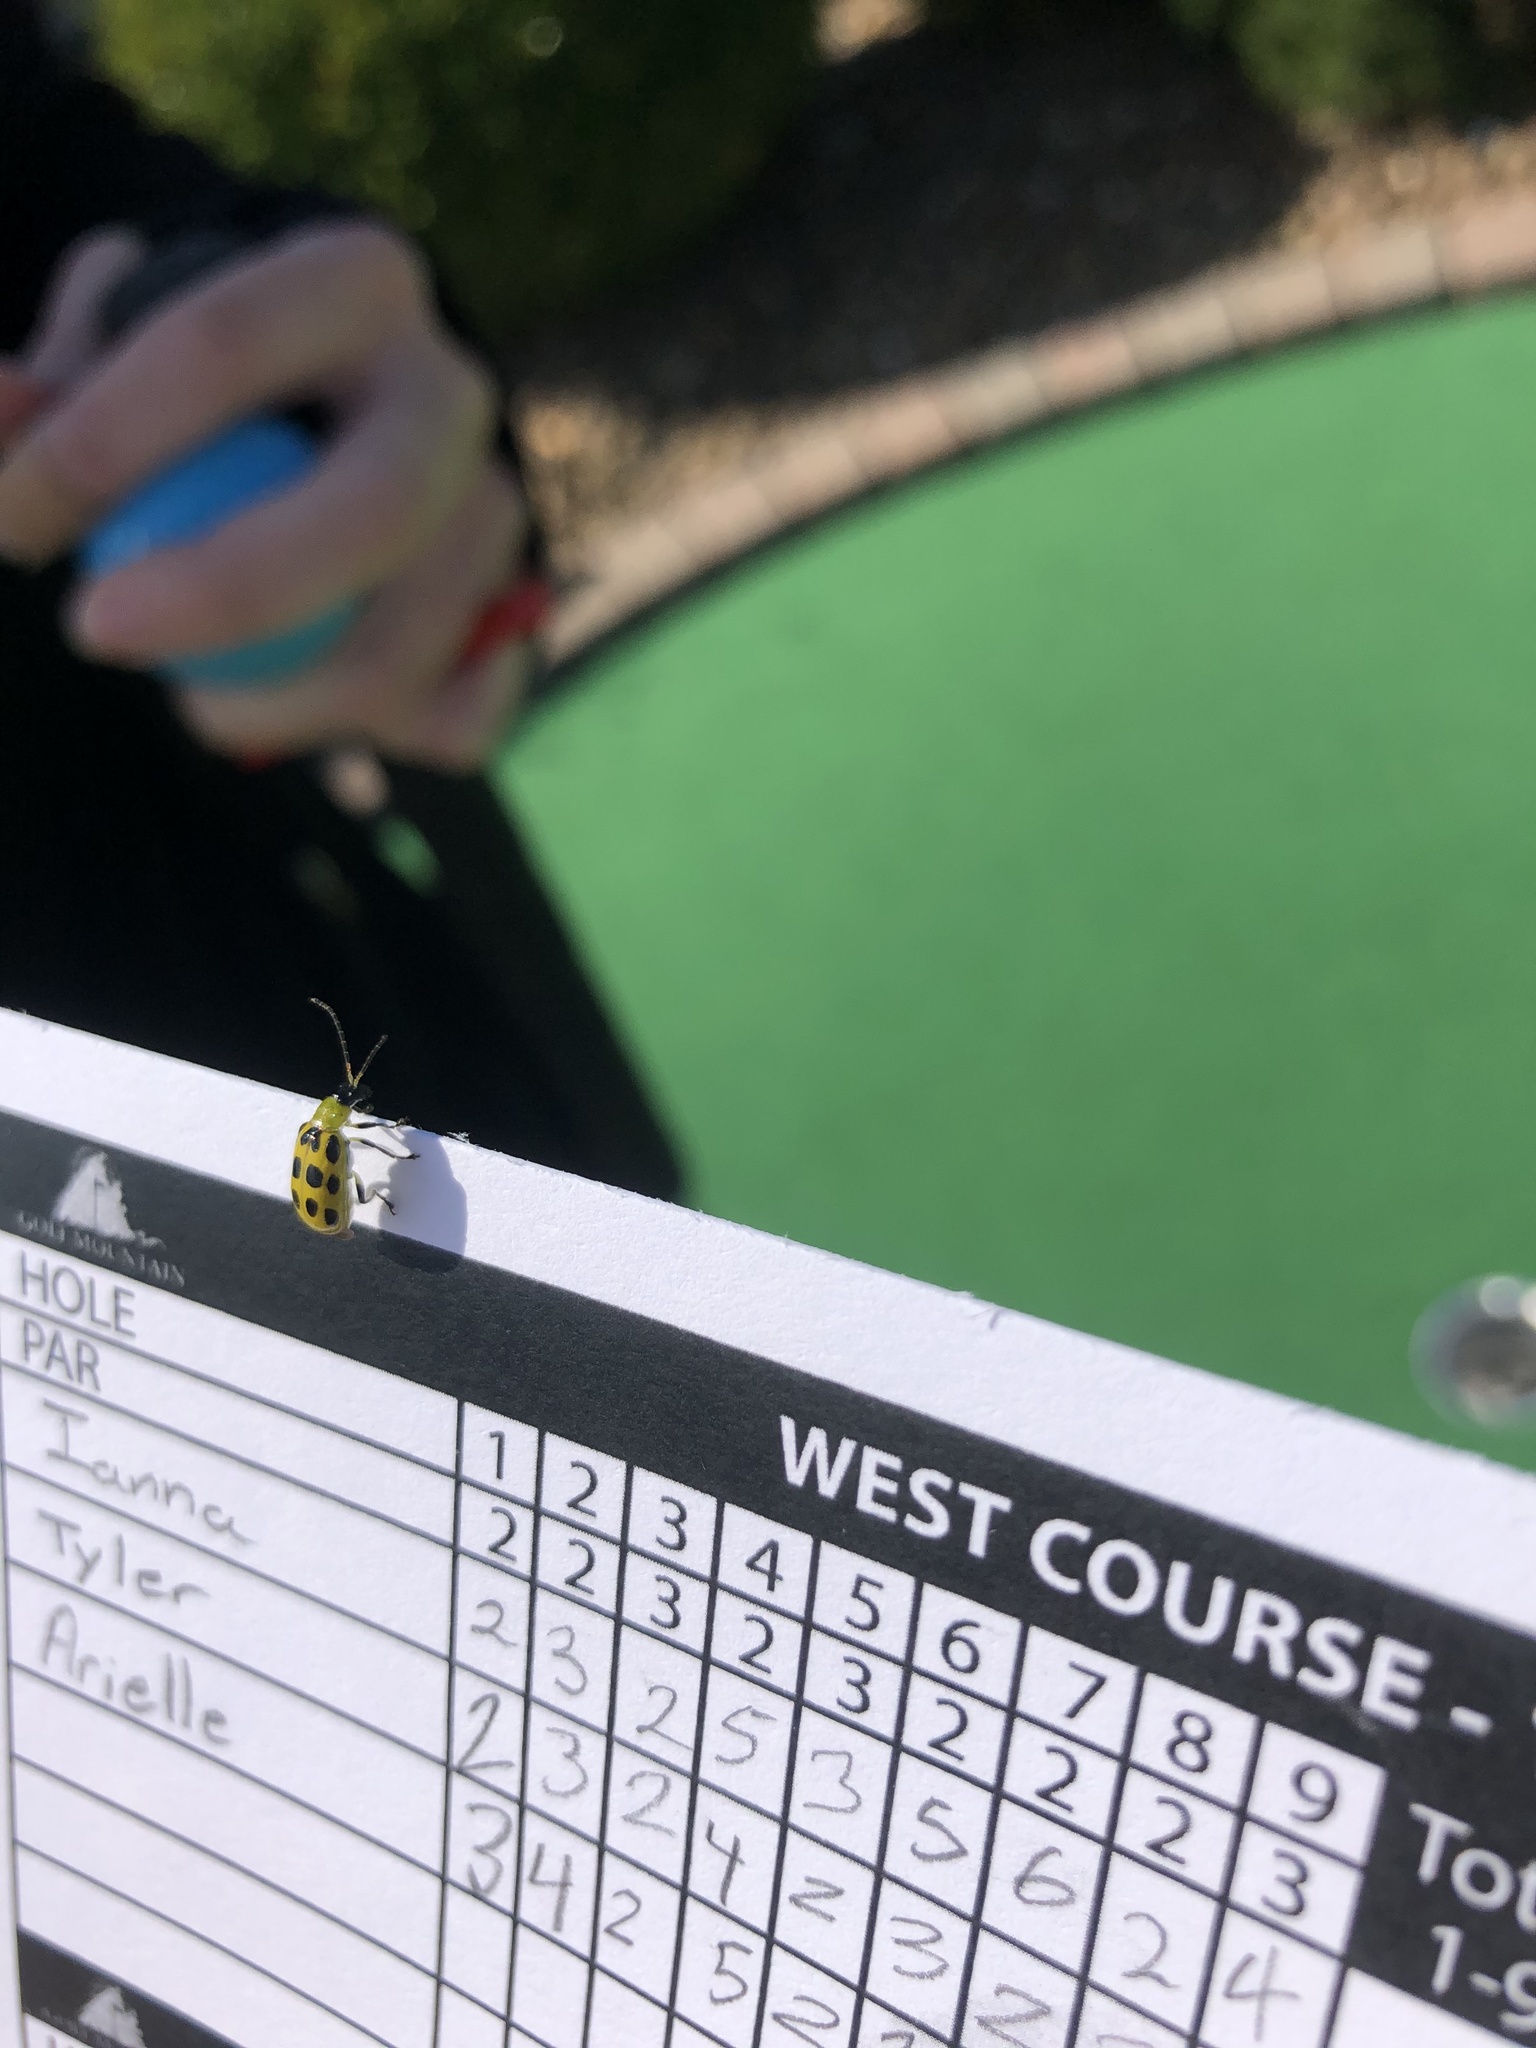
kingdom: Animalia
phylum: Arthropoda
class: Insecta
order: Coleoptera
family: Chrysomelidae
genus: Diabrotica
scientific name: Diabrotica undecimpunctata
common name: Spotted cucumber beetle
